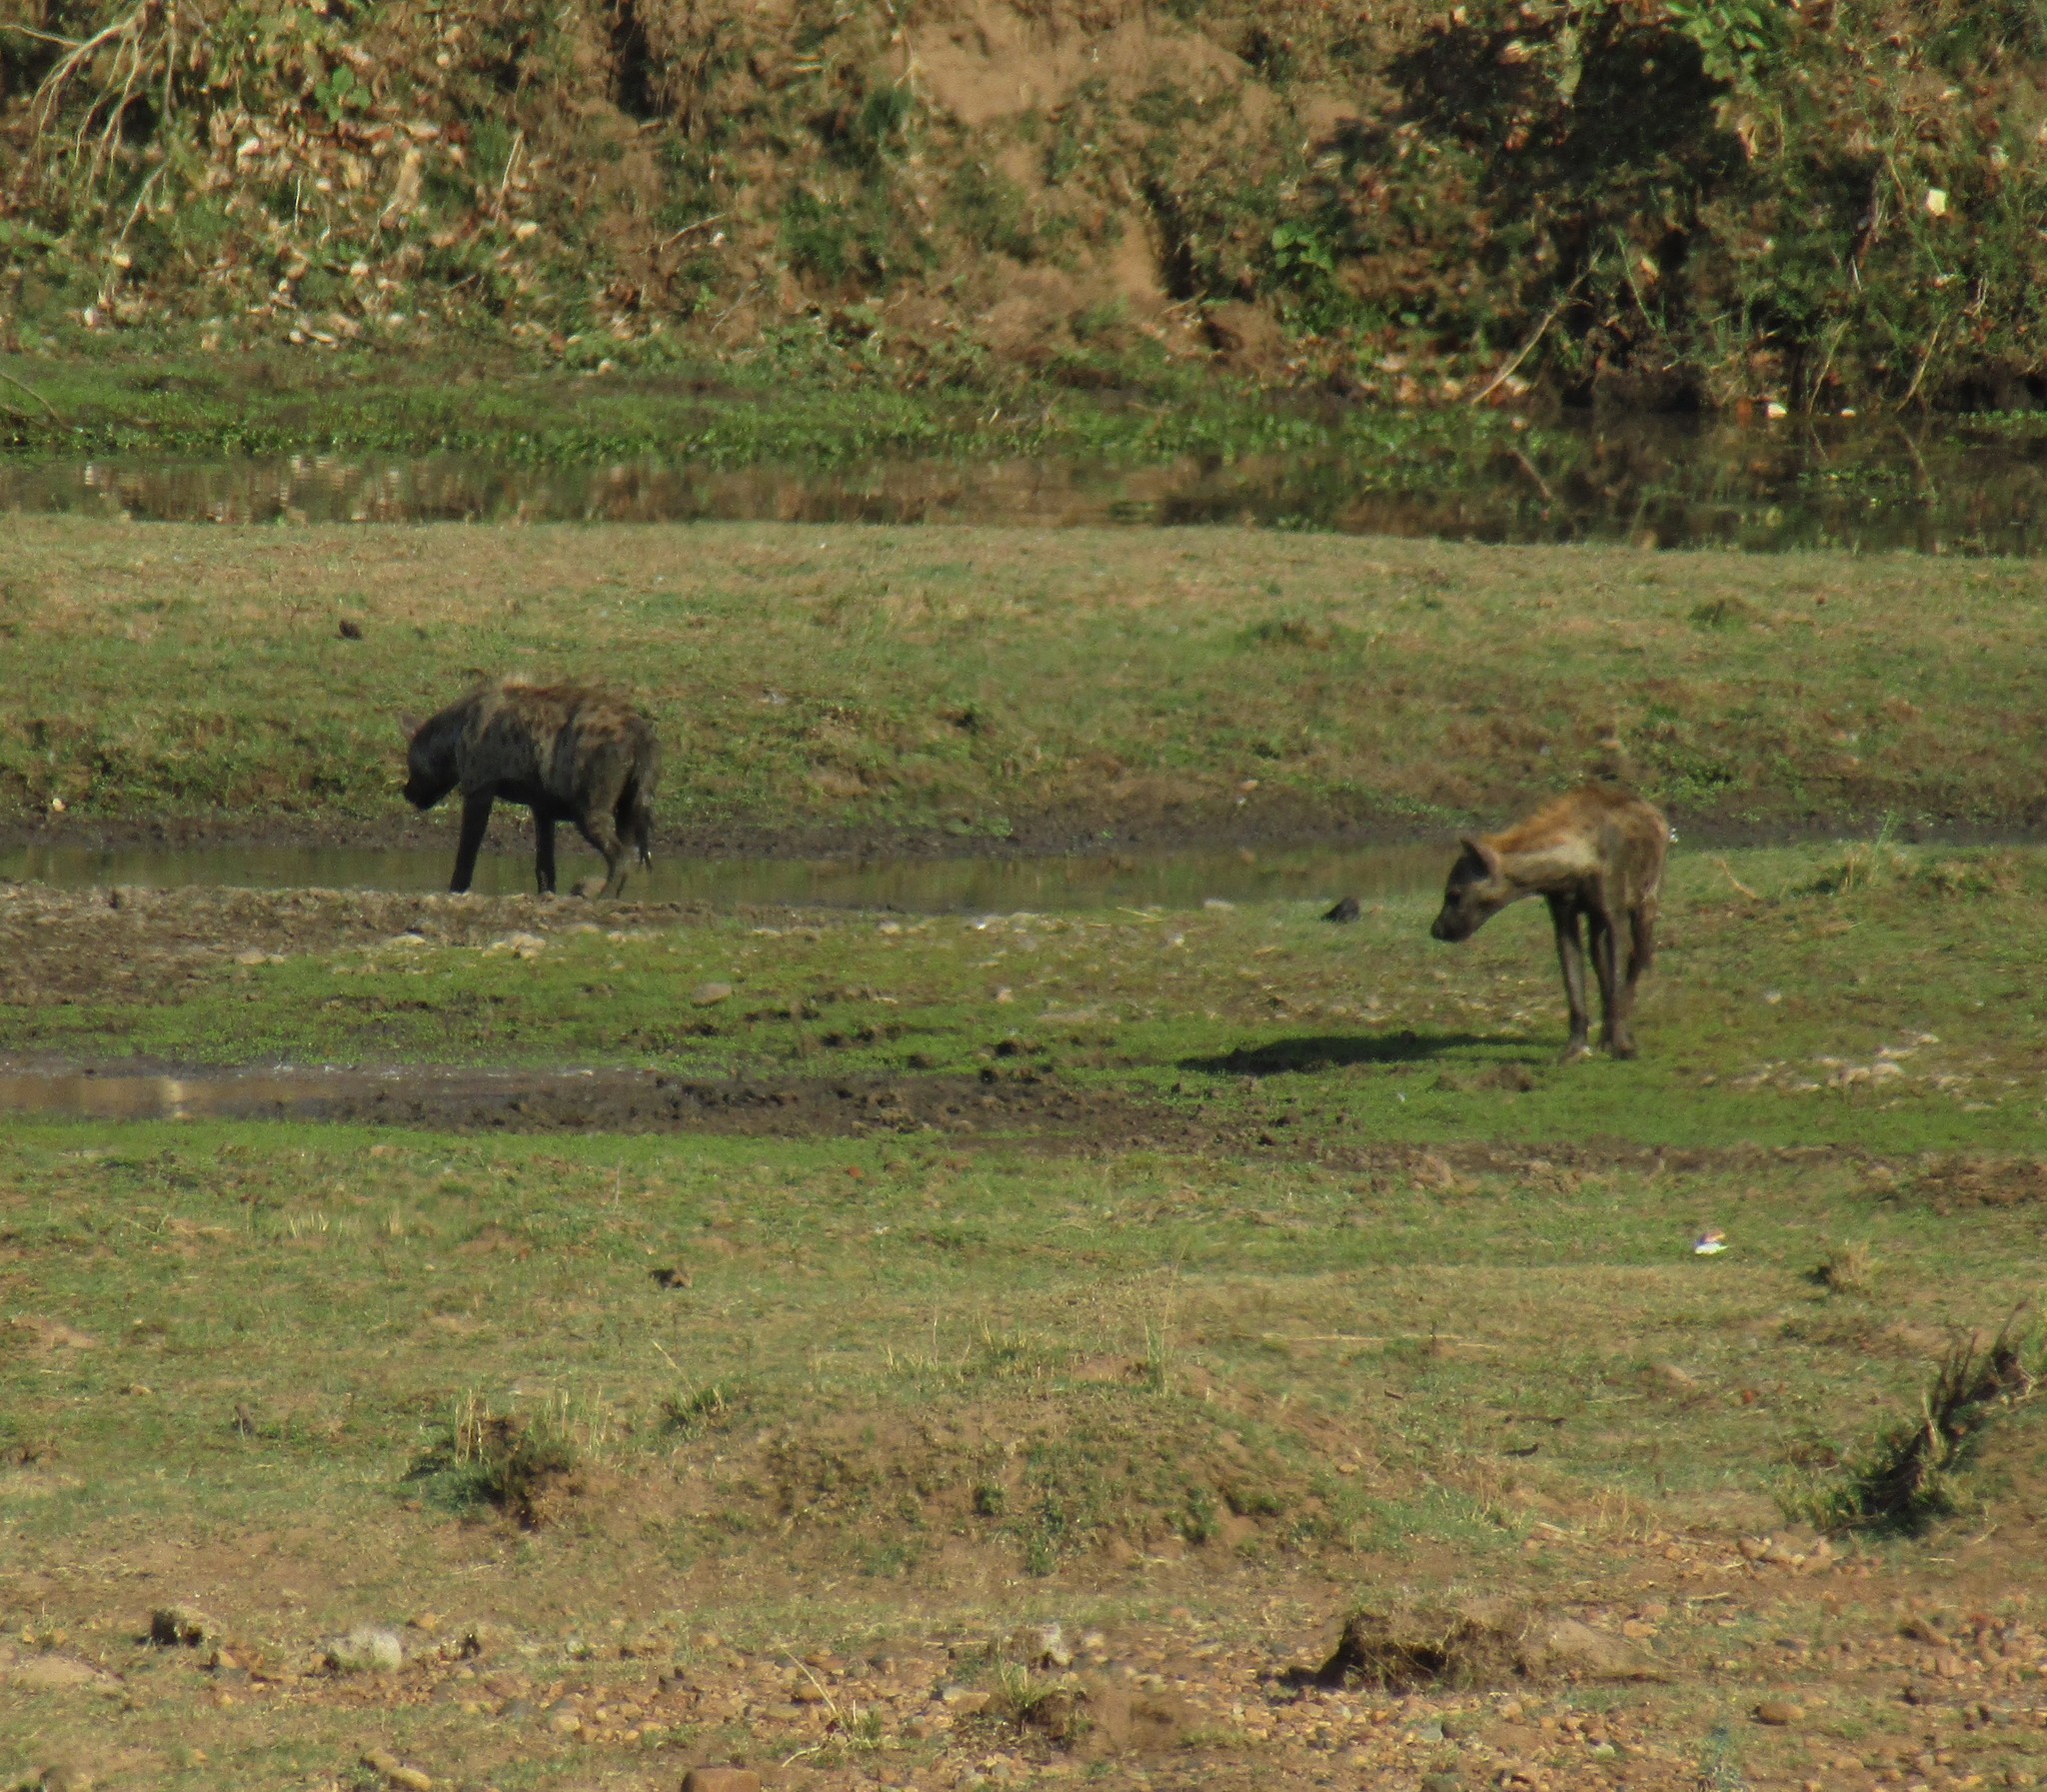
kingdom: Animalia
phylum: Chordata
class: Mammalia
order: Carnivora
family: Hyaenidae
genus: Crocuta
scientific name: Crocuta crocuta
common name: Spotted hyaena
